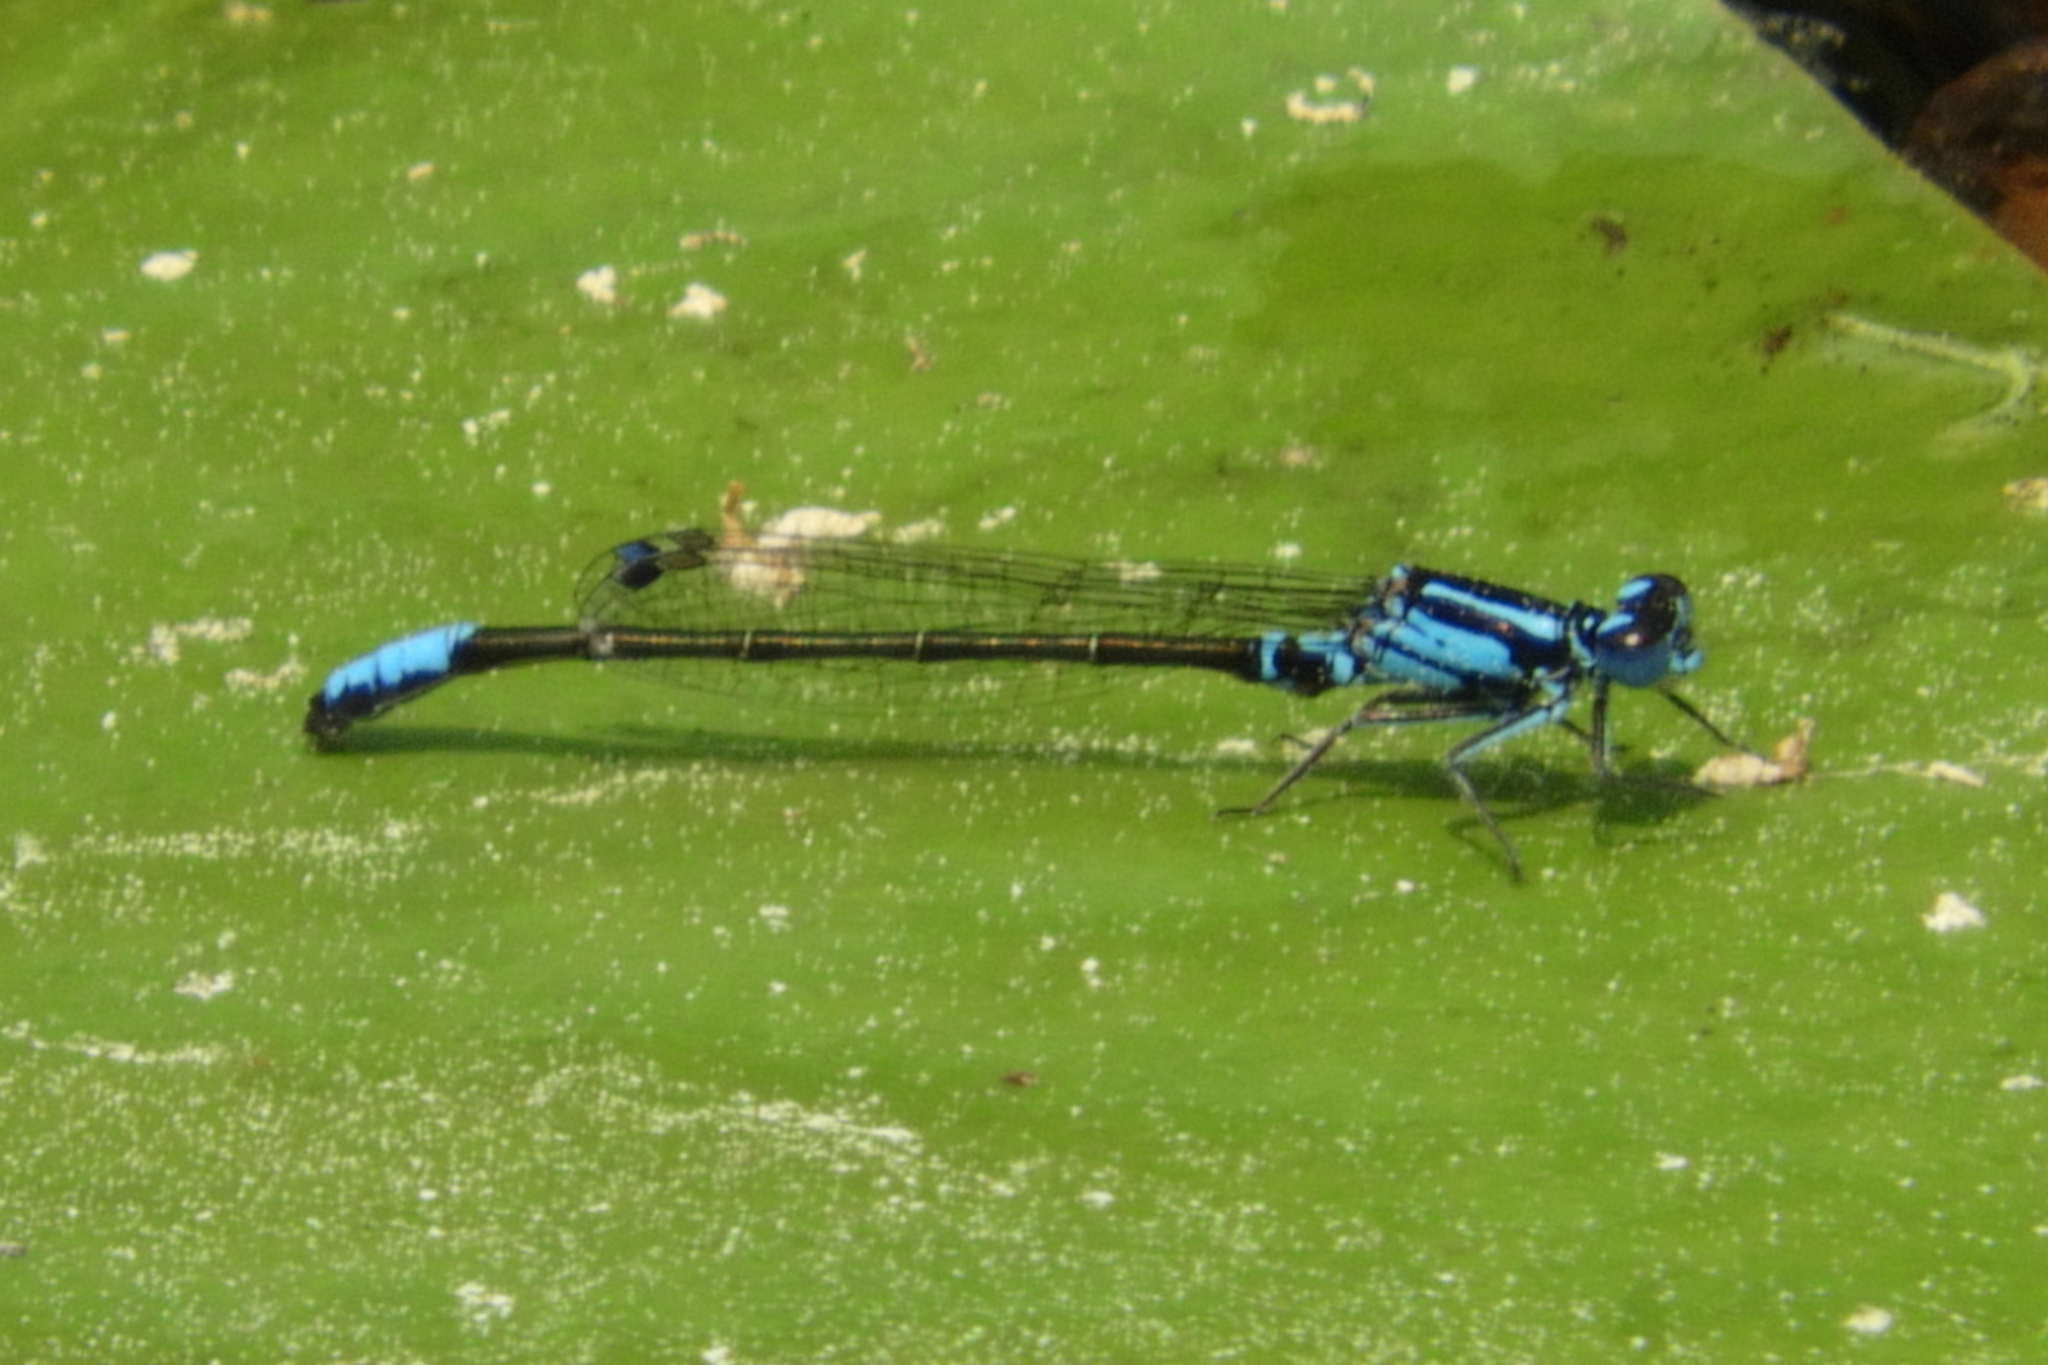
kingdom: Animalia
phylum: Arthropoda
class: Insecta
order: Odonata
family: Coenagrionidae
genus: Ischnura
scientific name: Ischnura kellicotti
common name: Lilypad forktail
